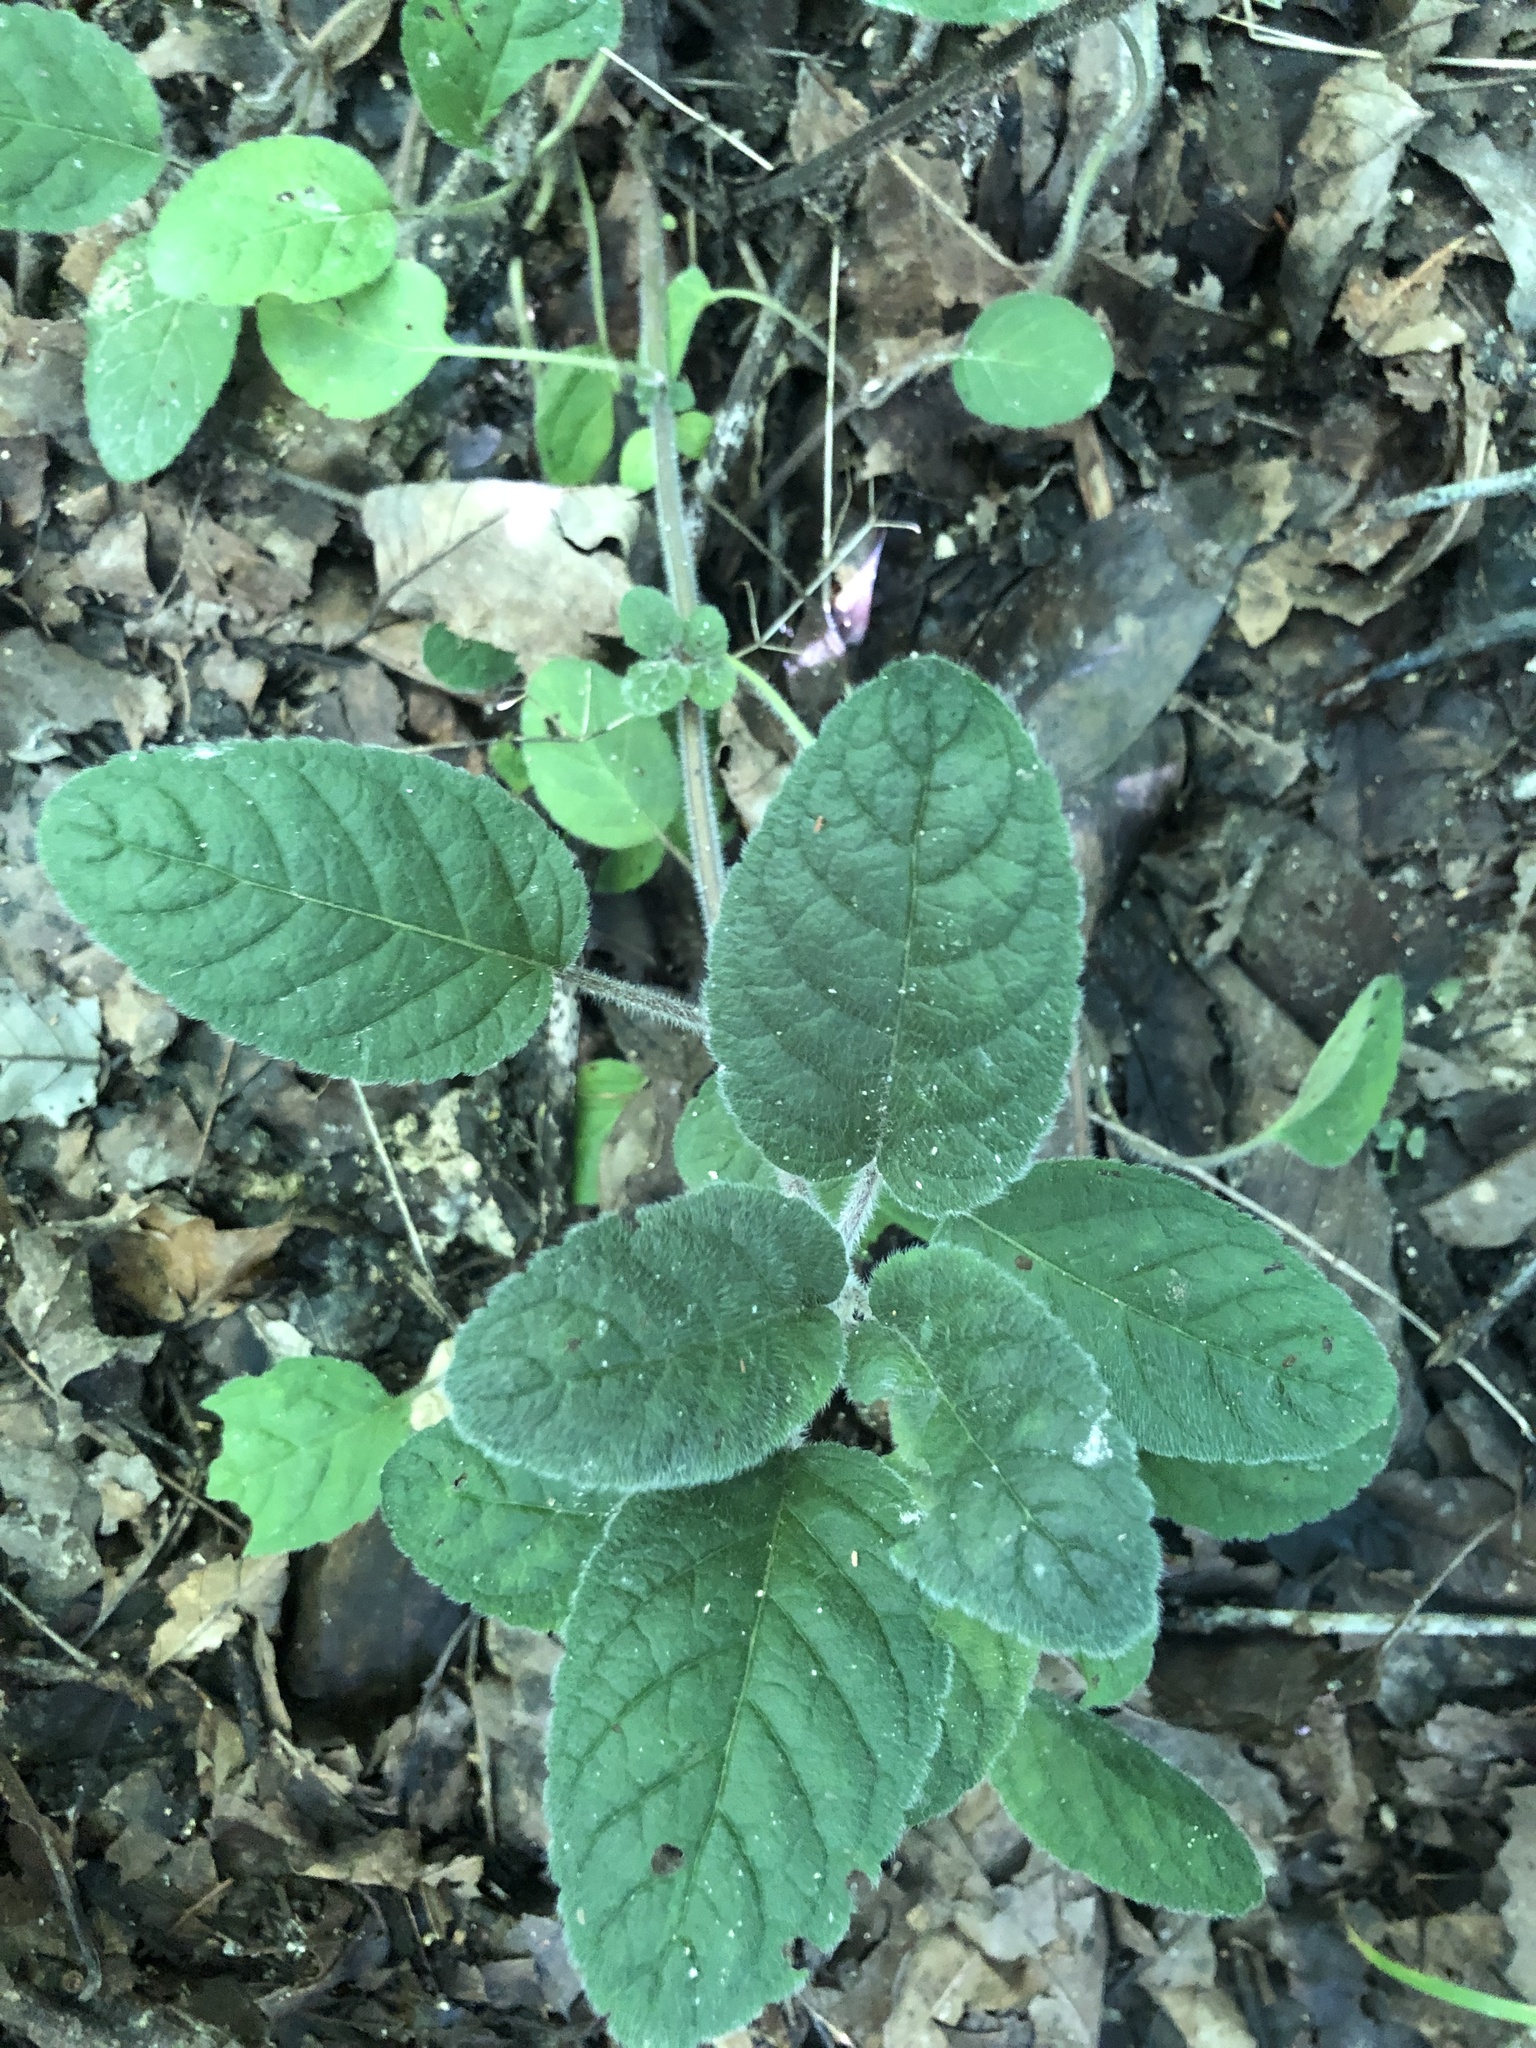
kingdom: Plantae
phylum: Tracheophyta
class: Magnoliopsida
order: Lamiales
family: Lamiaceae
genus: Blephilia
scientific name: Blephilia ciliata
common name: Downy blephilia
